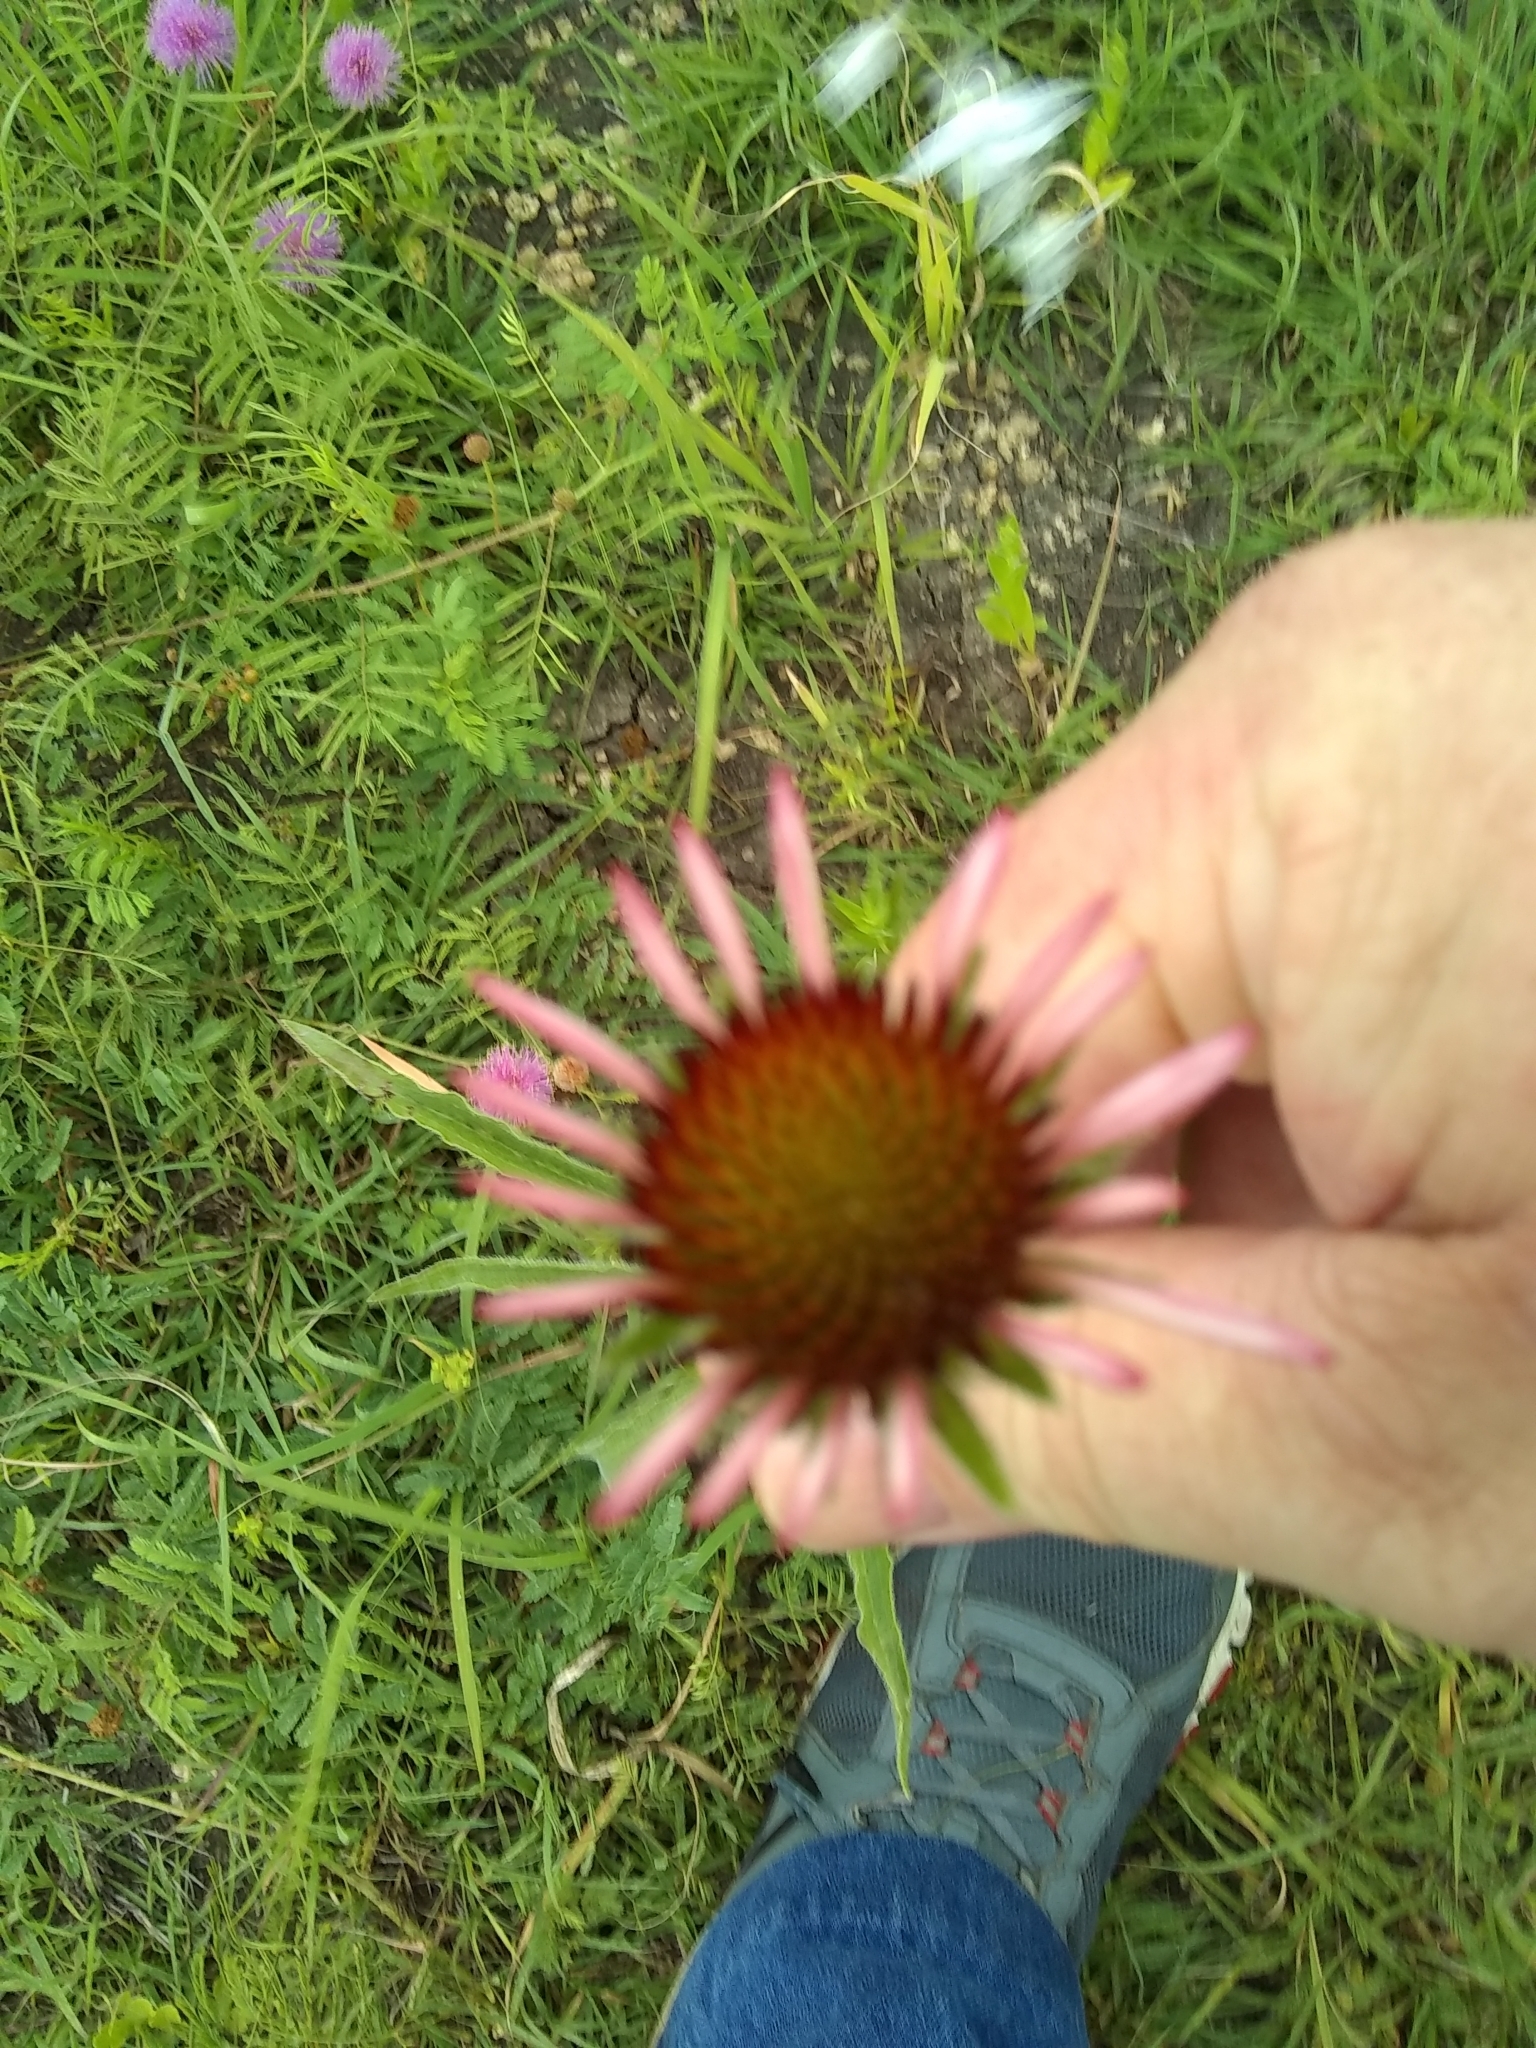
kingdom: Plantae
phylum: Tracheophyta
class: Magnoliopsida
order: Asterales
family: Asteraceae
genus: Echinacea
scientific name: Echinacea angustifolia
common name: Black-sampson echinacea
